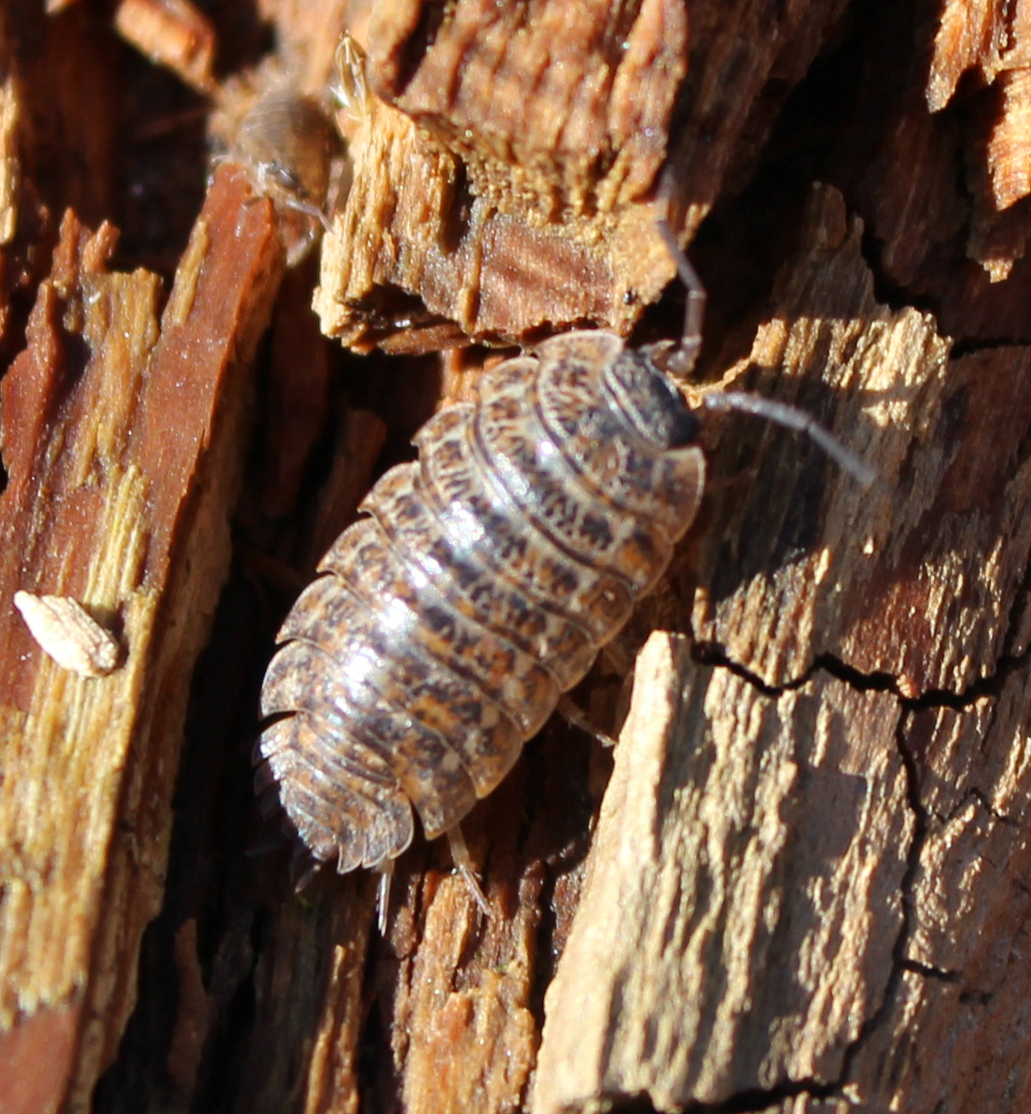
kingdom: Animalia
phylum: Arthropoda
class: Malacostraca
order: Isopoda
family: Trachelipodidae
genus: Trachelipus
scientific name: Trachelipus rathkii
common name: Isopod
